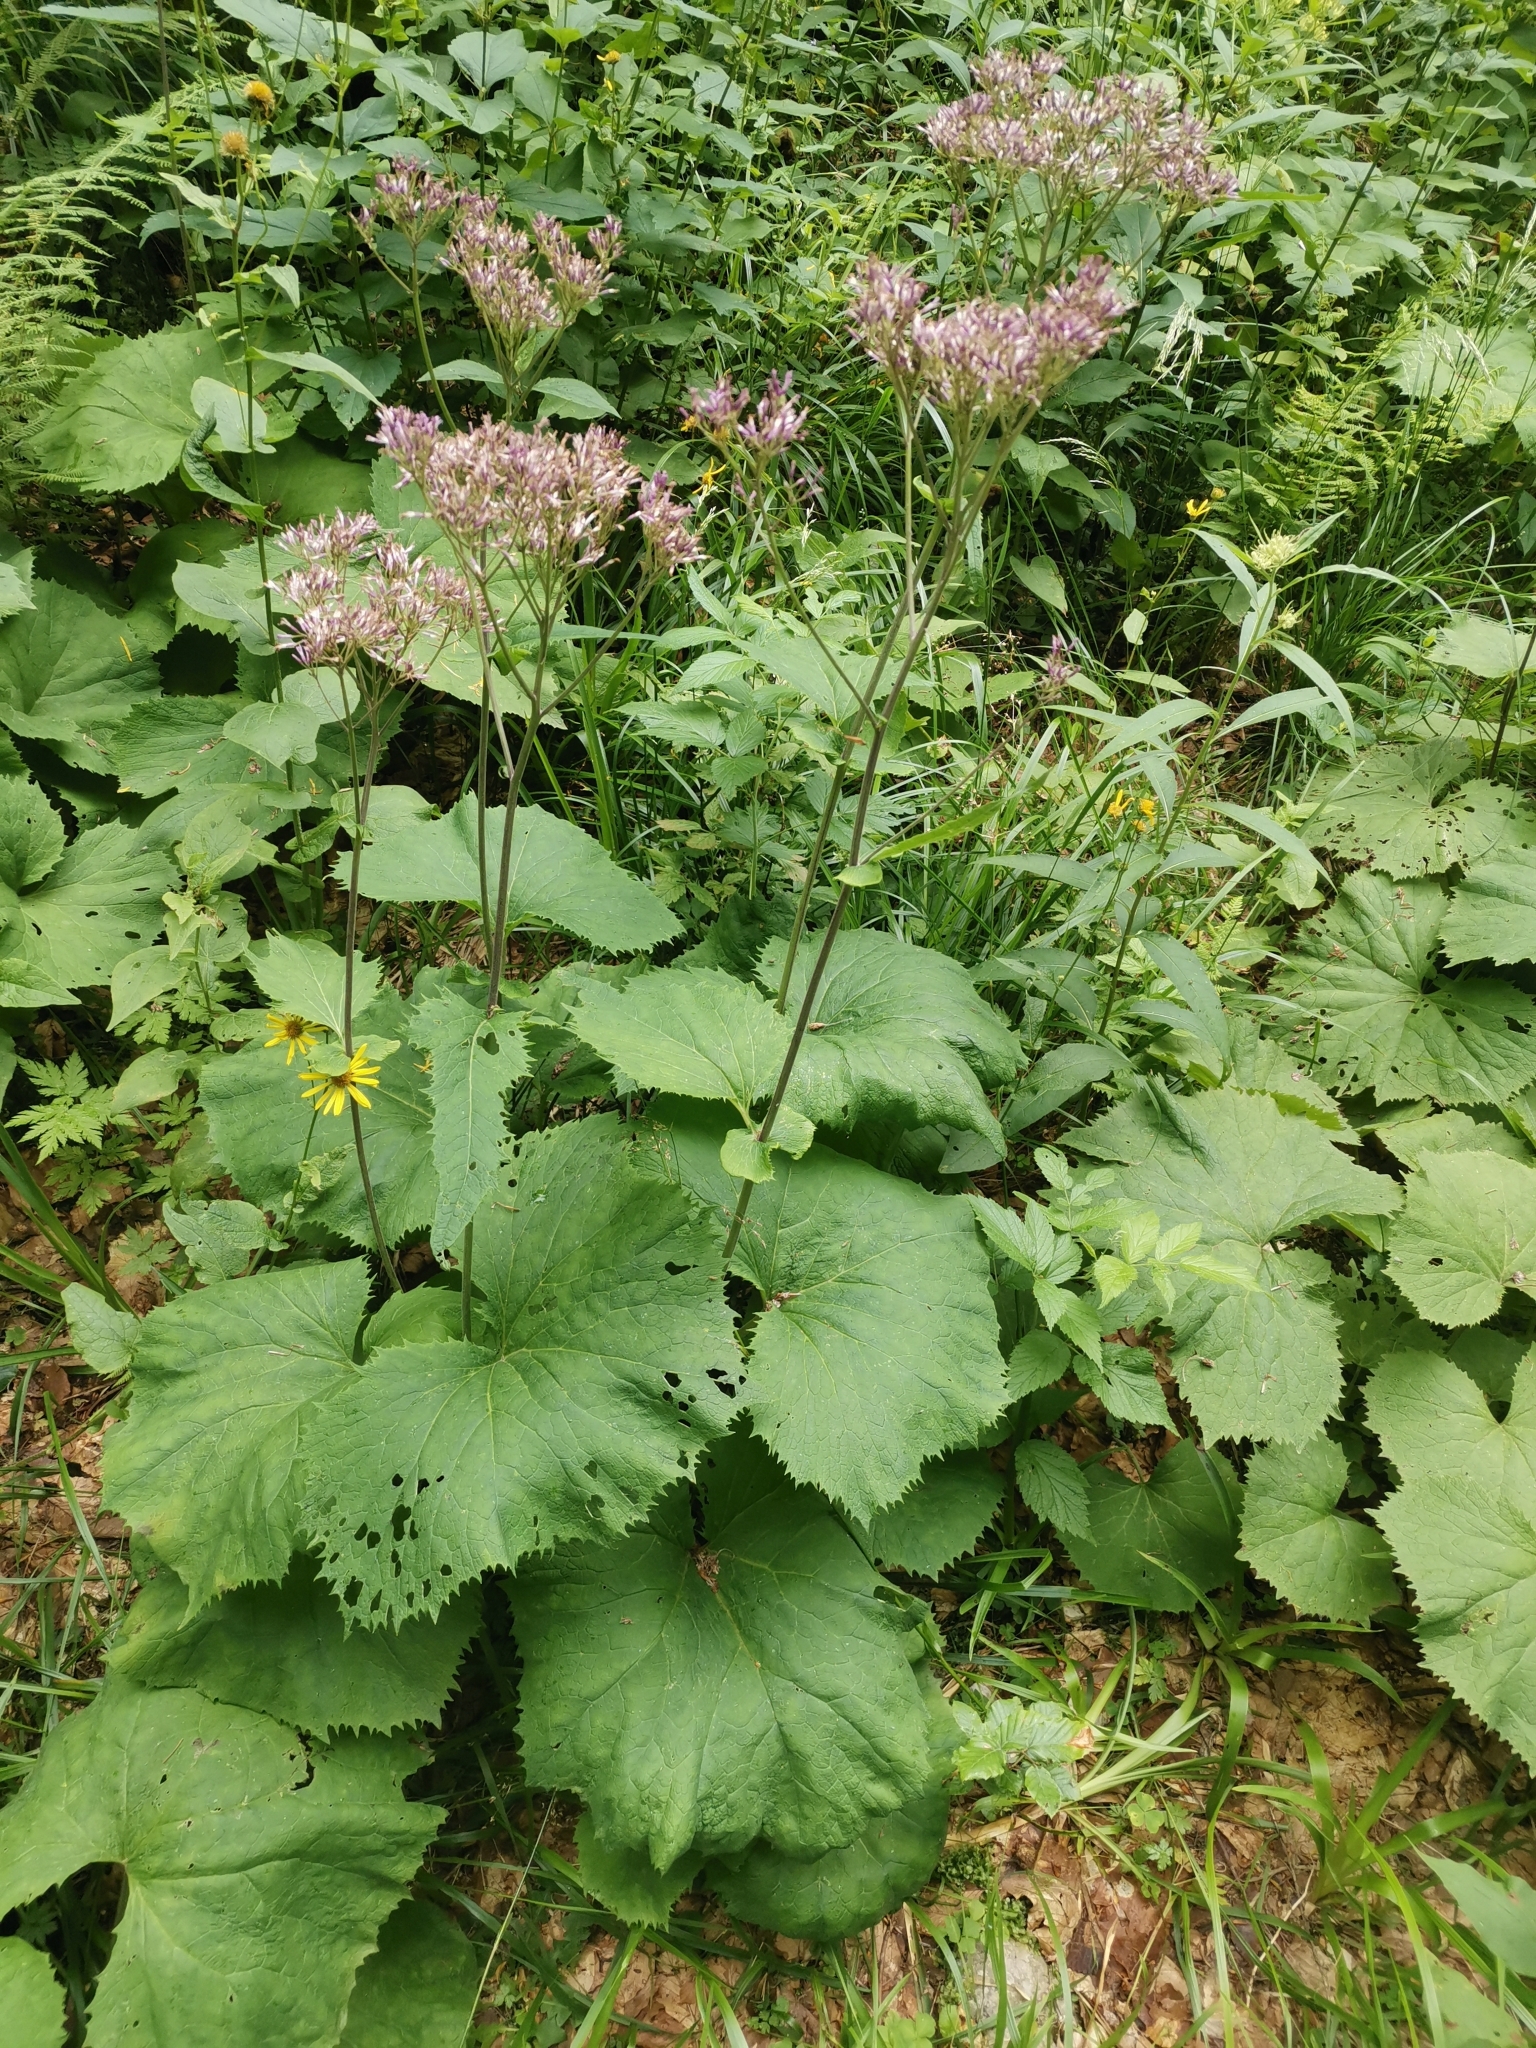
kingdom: Plantae
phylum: Tracheophyta
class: Magnoliopsida
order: Asterales
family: Asteraceae
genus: Adenostyles
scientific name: Adenostyles alliariae
